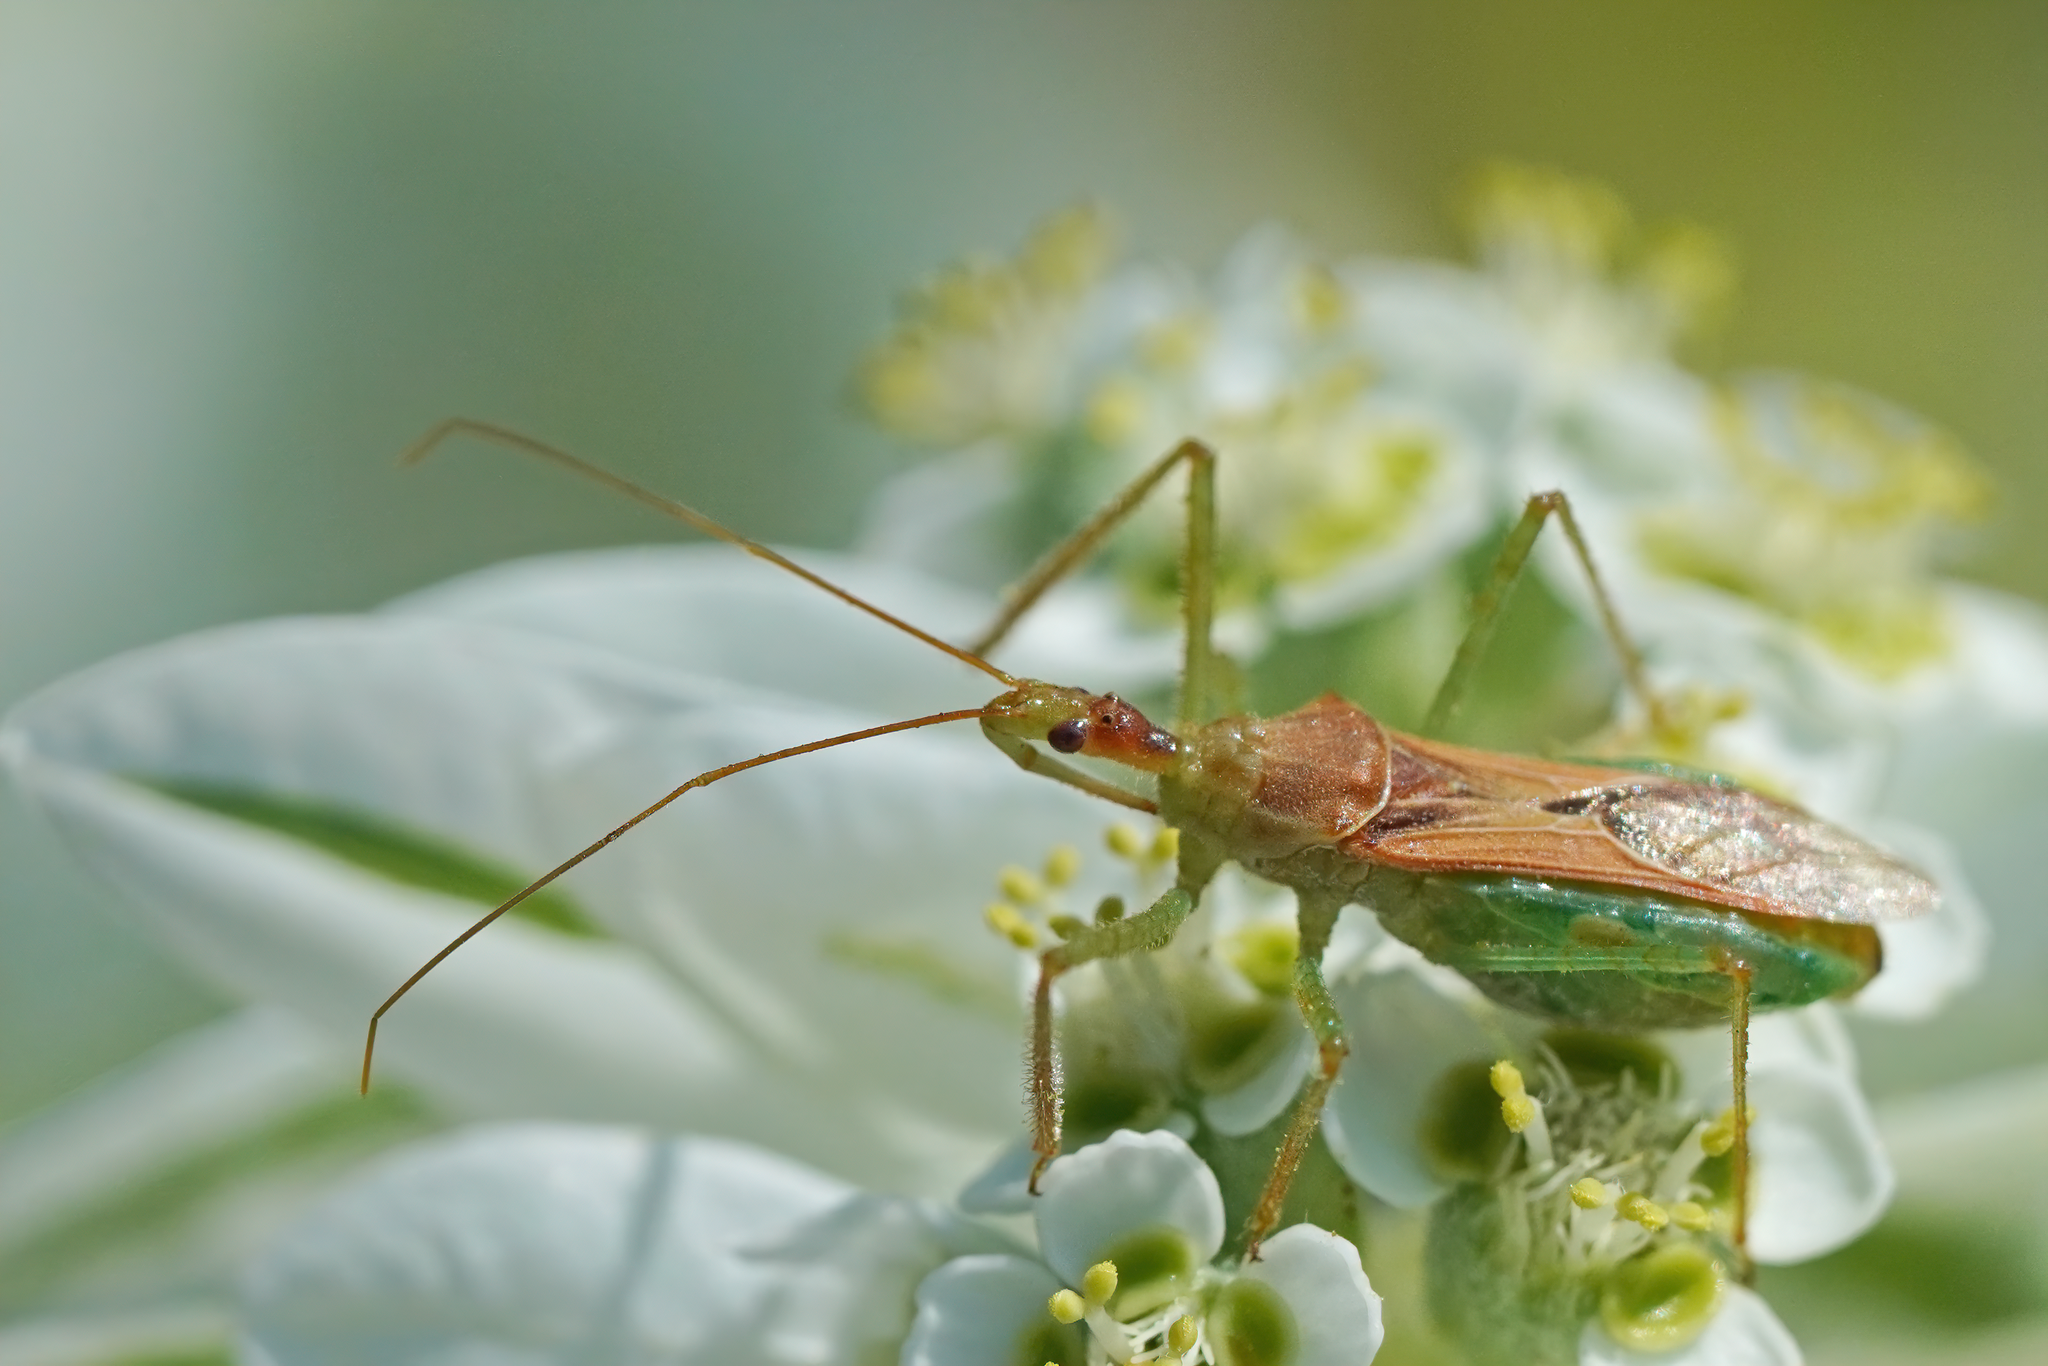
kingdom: Animalia
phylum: Arthropoda
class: Insecta
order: Hemiptera
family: Reduviidae
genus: Zelus
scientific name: Zelus renardii
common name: Assassin bug
